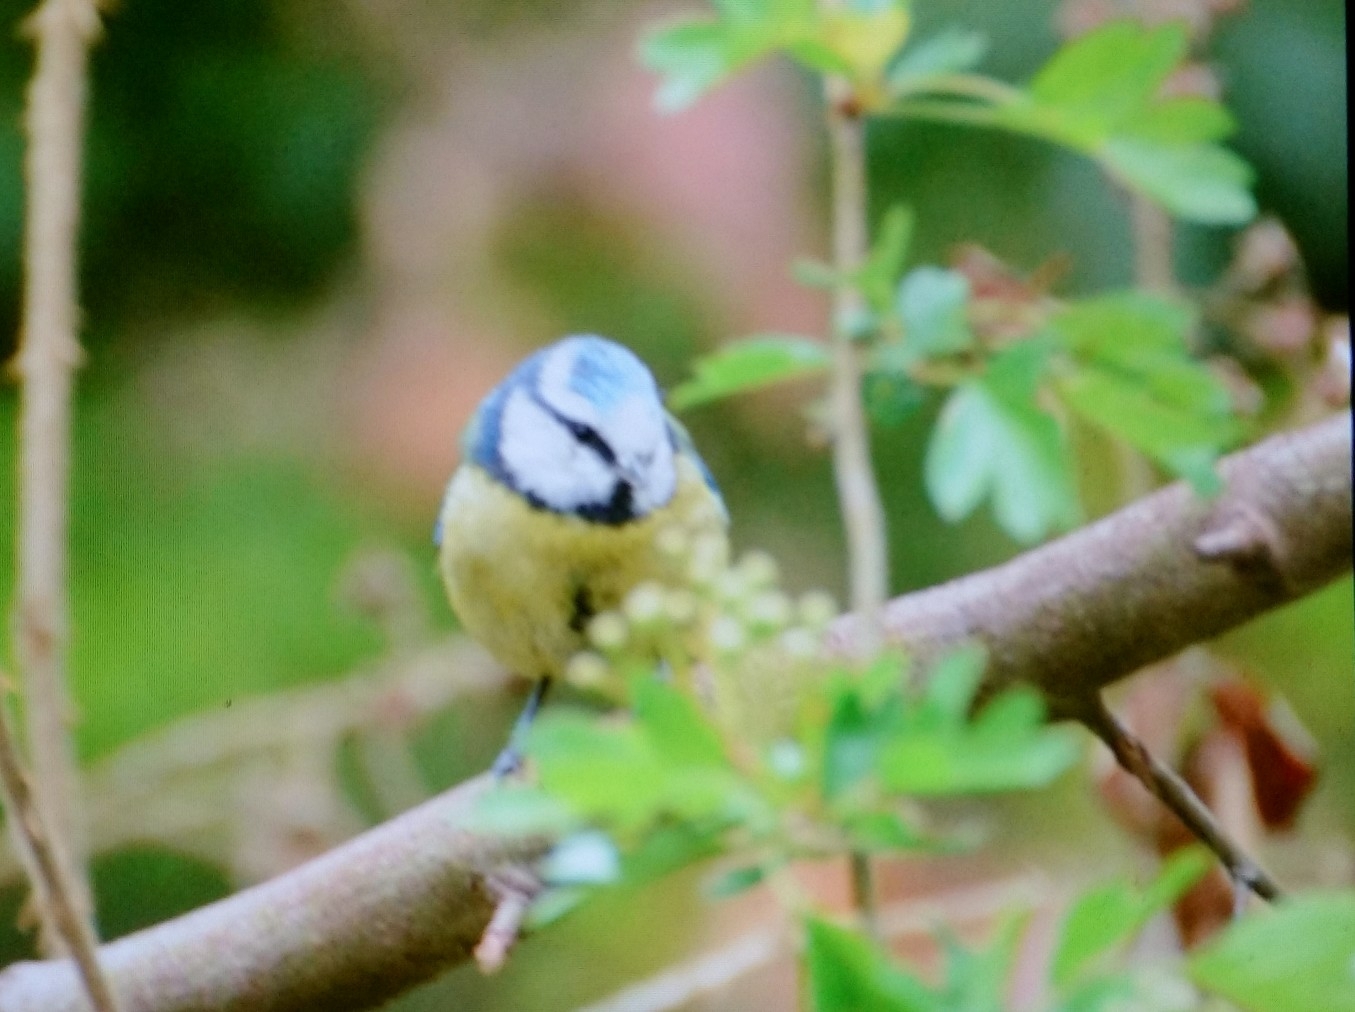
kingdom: Animalia
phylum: Chordata
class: Aves
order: Passeriformes
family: Paridae
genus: Cyanistes
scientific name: Cyanistes caeruleus
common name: Eurasian blue tit
